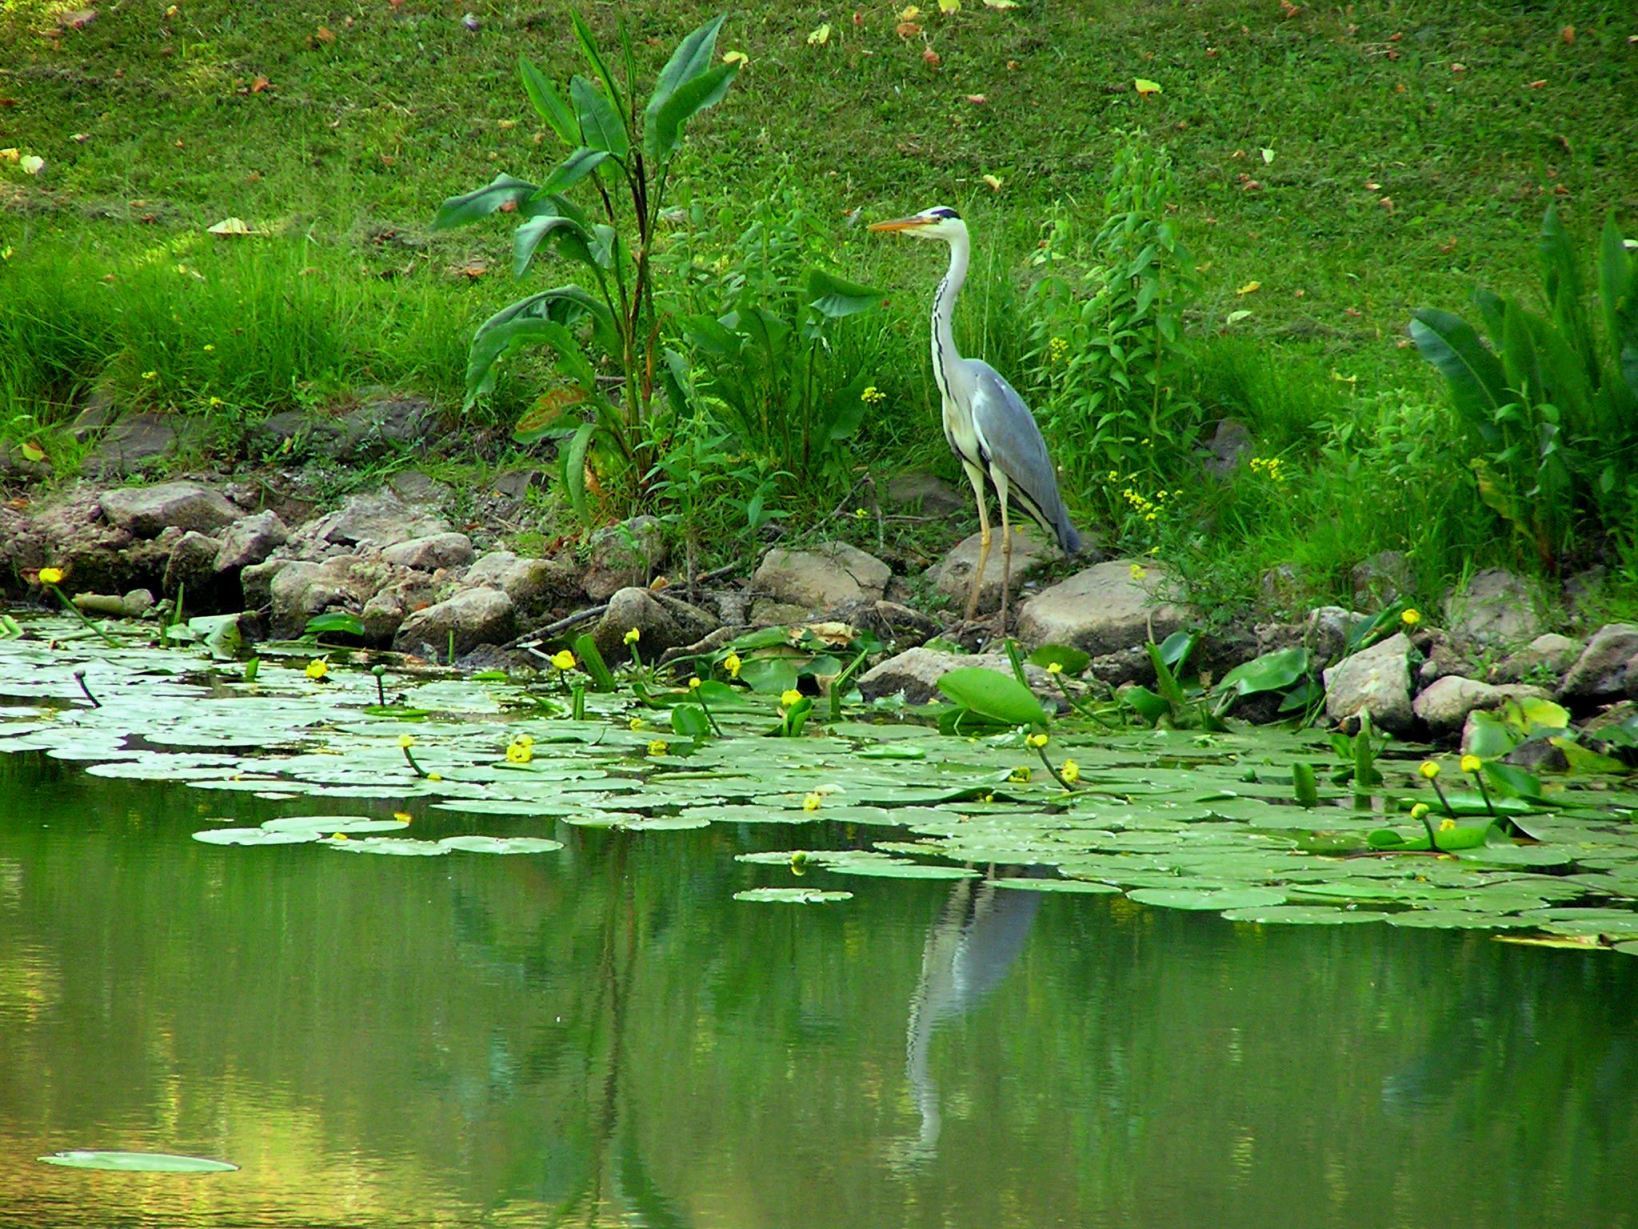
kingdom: Animalia
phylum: Chordata
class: Aves
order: Pelecaniformes
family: Ardeidae
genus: Ardea
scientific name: Ardea cinerea
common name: Grey heron
